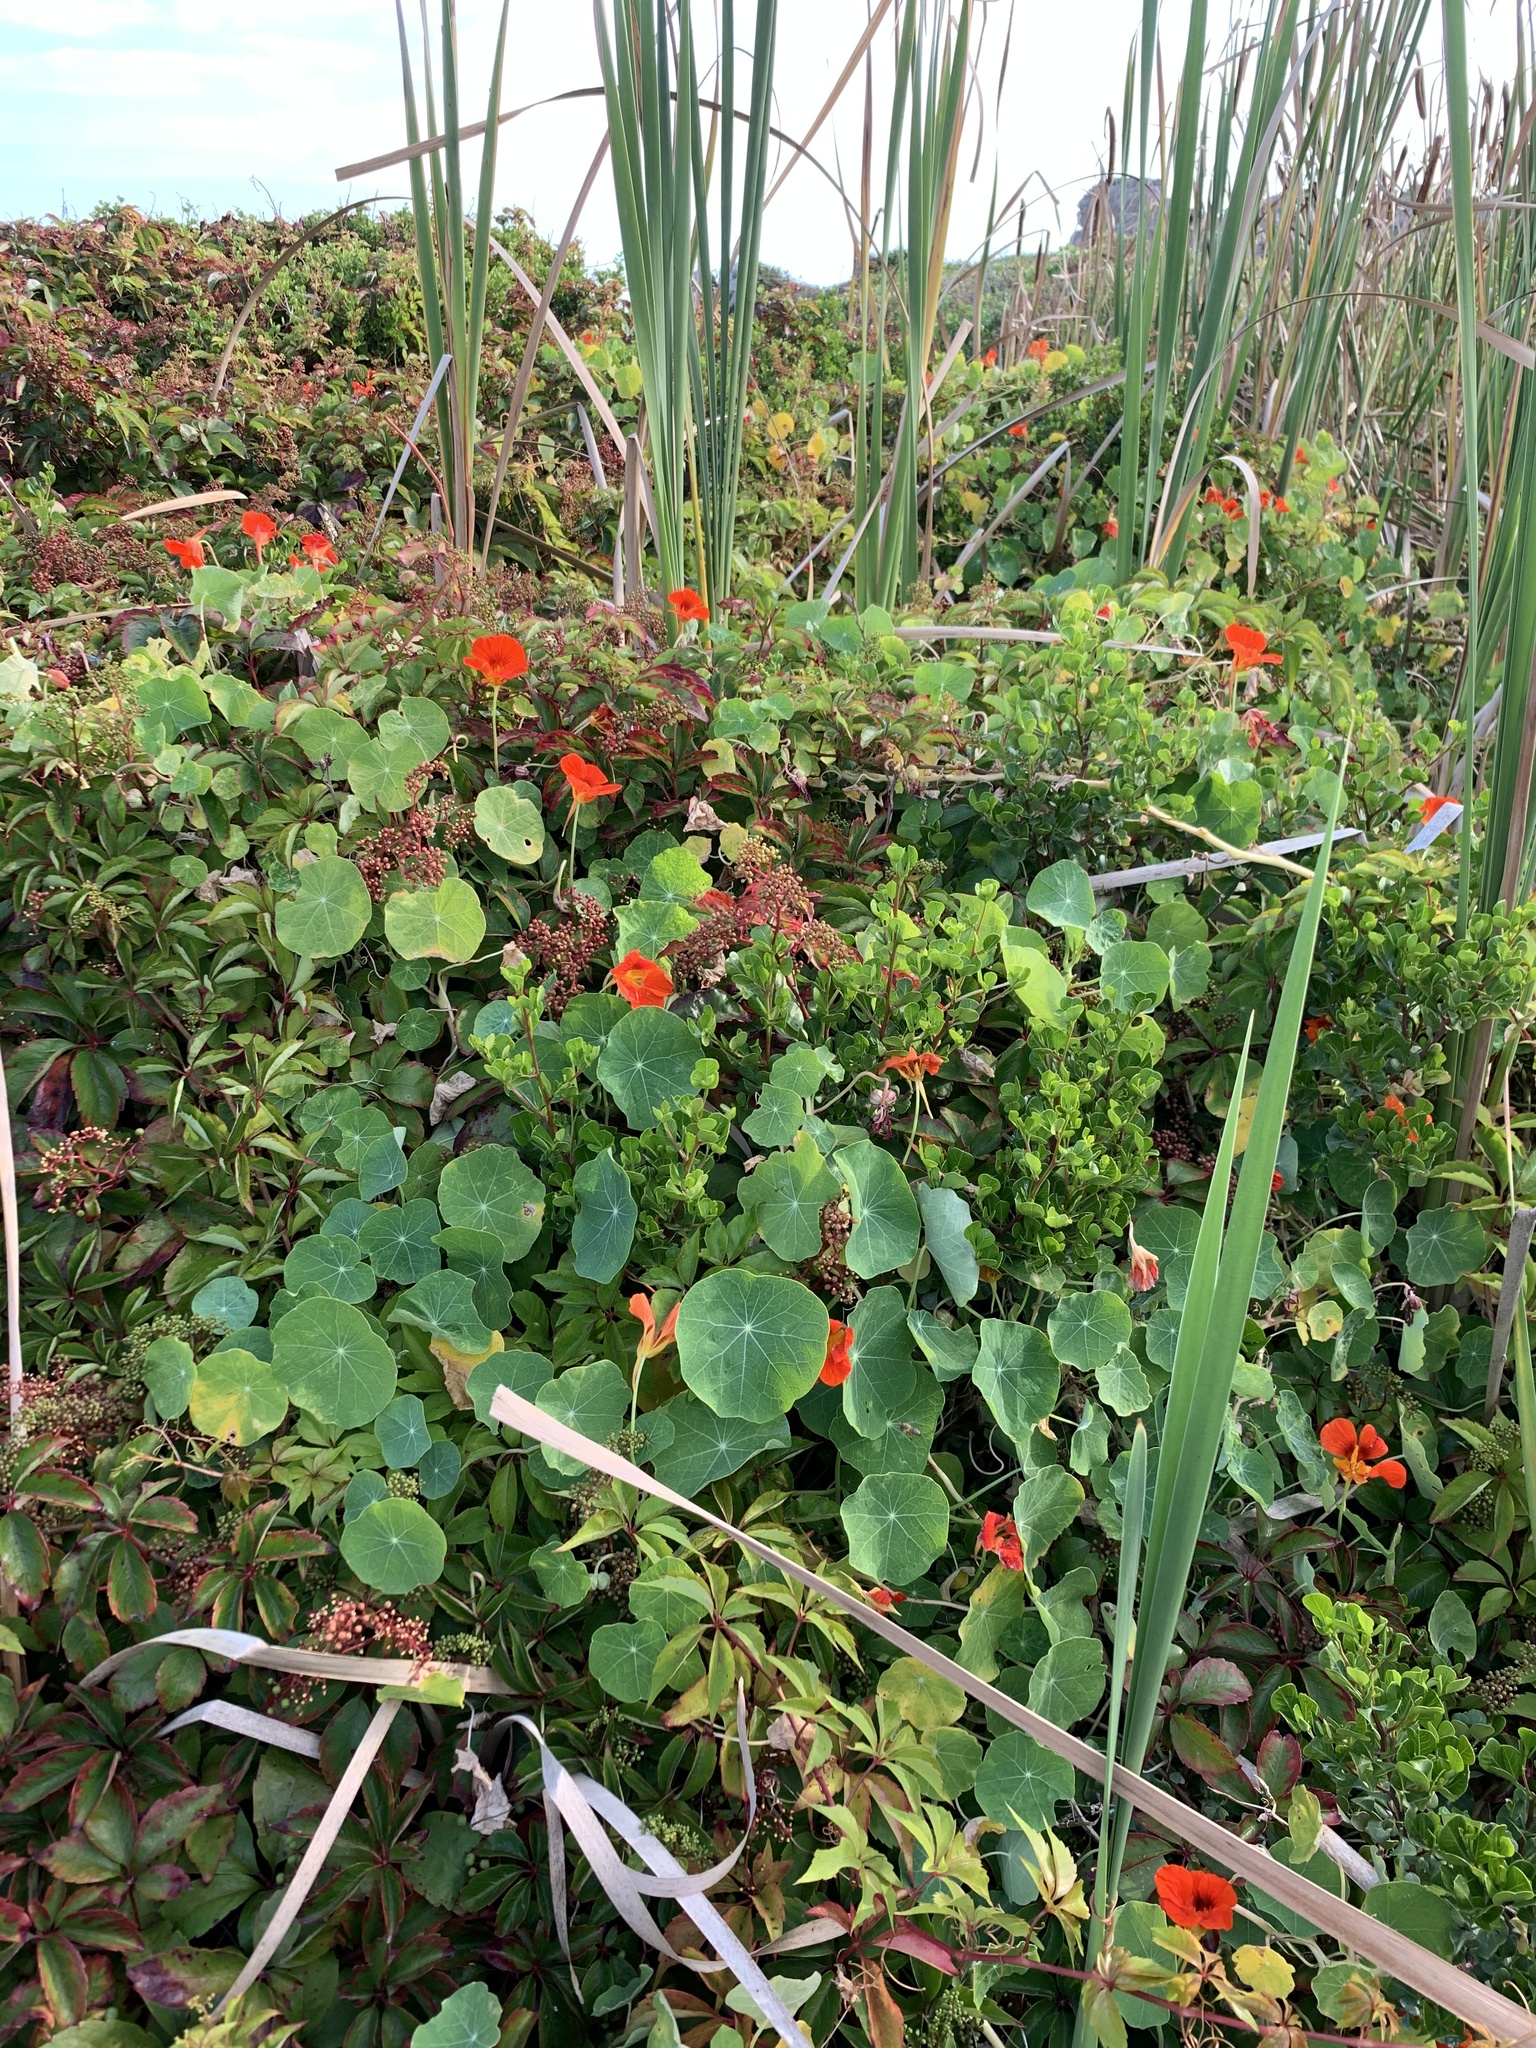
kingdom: Plantae
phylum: Tracheophyta
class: Magnoliopsida
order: Brassicales
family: Tropaeolaceae
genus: Tropaeolum
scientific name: Tropaeolum majus
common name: Nasturtium
